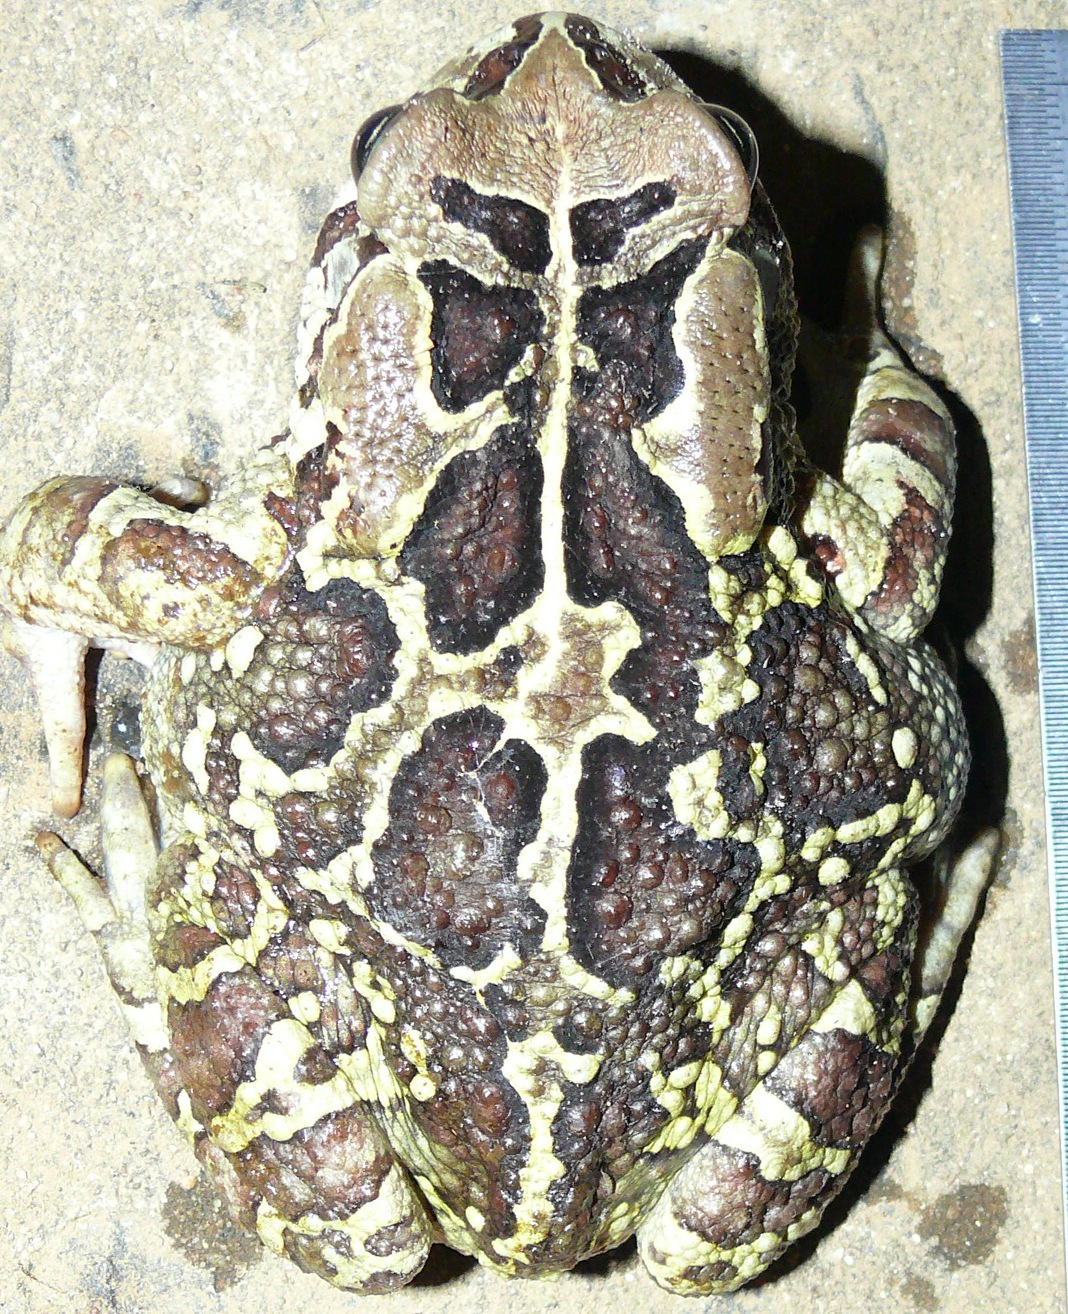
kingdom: Animalia
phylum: Chordata
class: Amphibia
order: Anura
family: Bufonidae
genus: Sclerophrys
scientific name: Sclerophrys pantherina
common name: Panther toad
